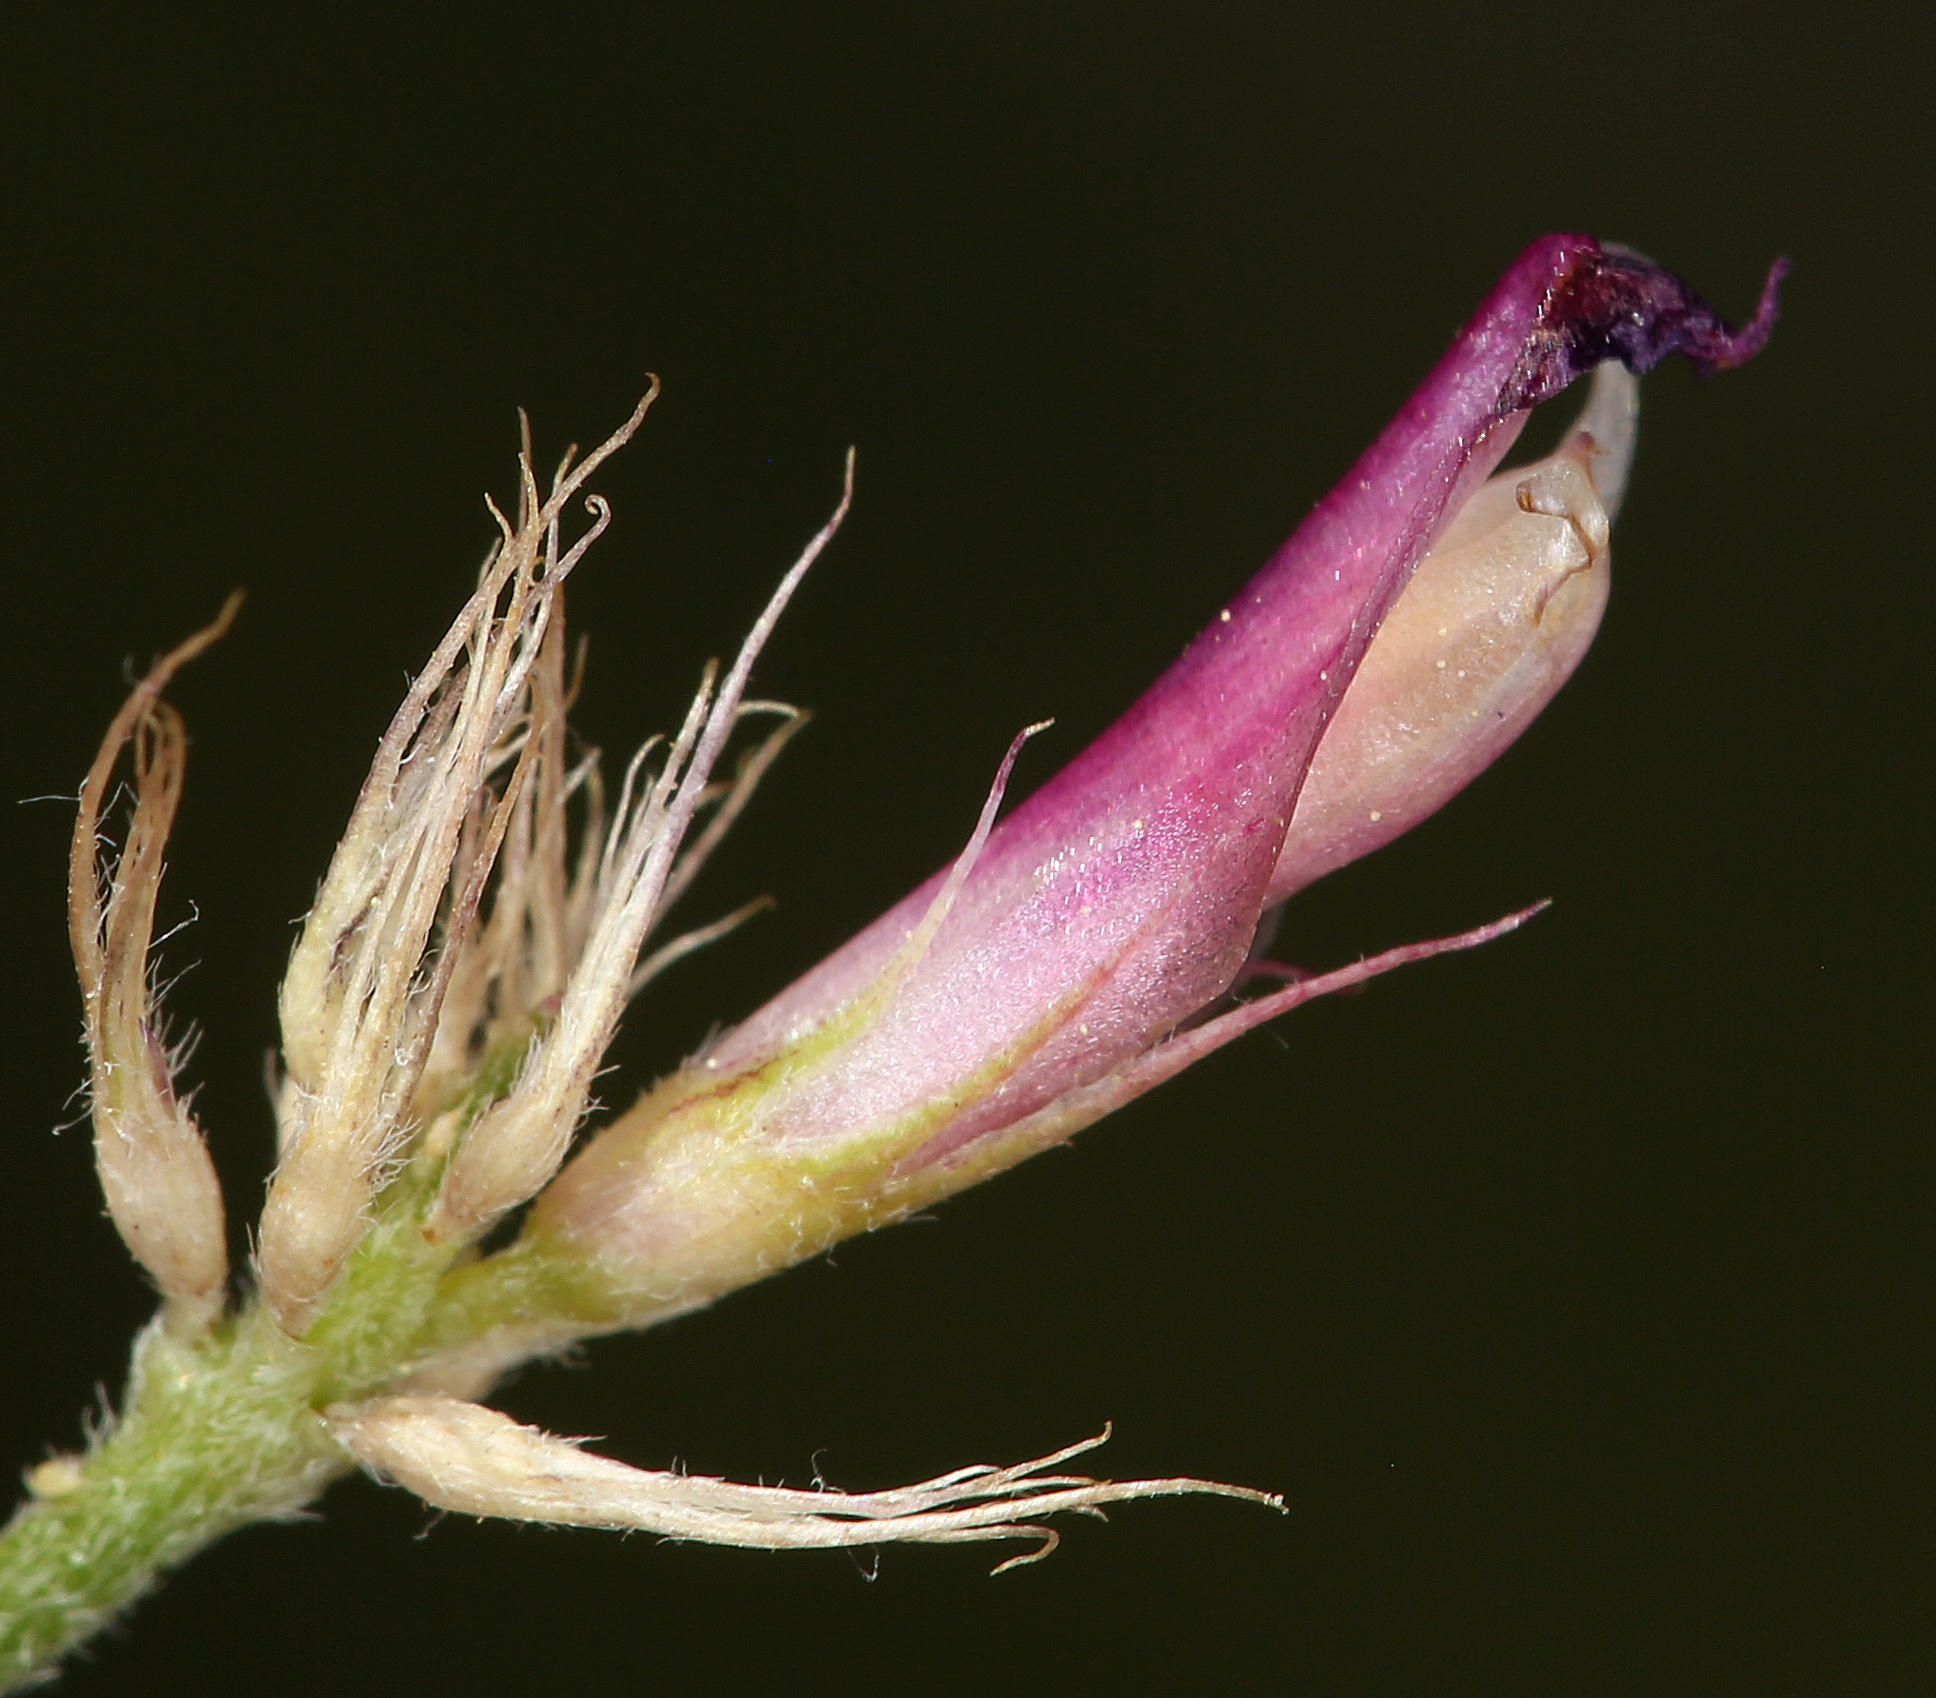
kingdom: Plantae
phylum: Tracheophyta
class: Magnoliopsida
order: Fabales
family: Fabaceae
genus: Trifolium
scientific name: Trifolium longipes
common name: Long-stalk clover
